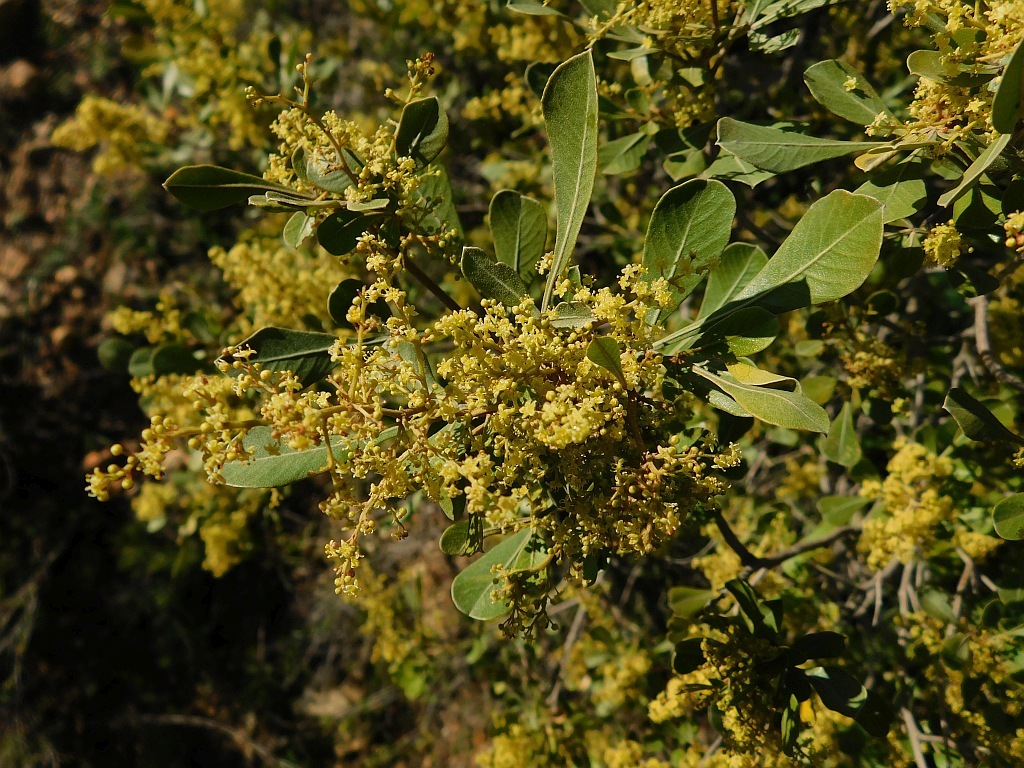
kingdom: Plantae
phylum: Tracheophyta
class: Magnoliopsida
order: Sapindales
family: Anacardiaceae
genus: Searsia
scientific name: Searsia pallens
